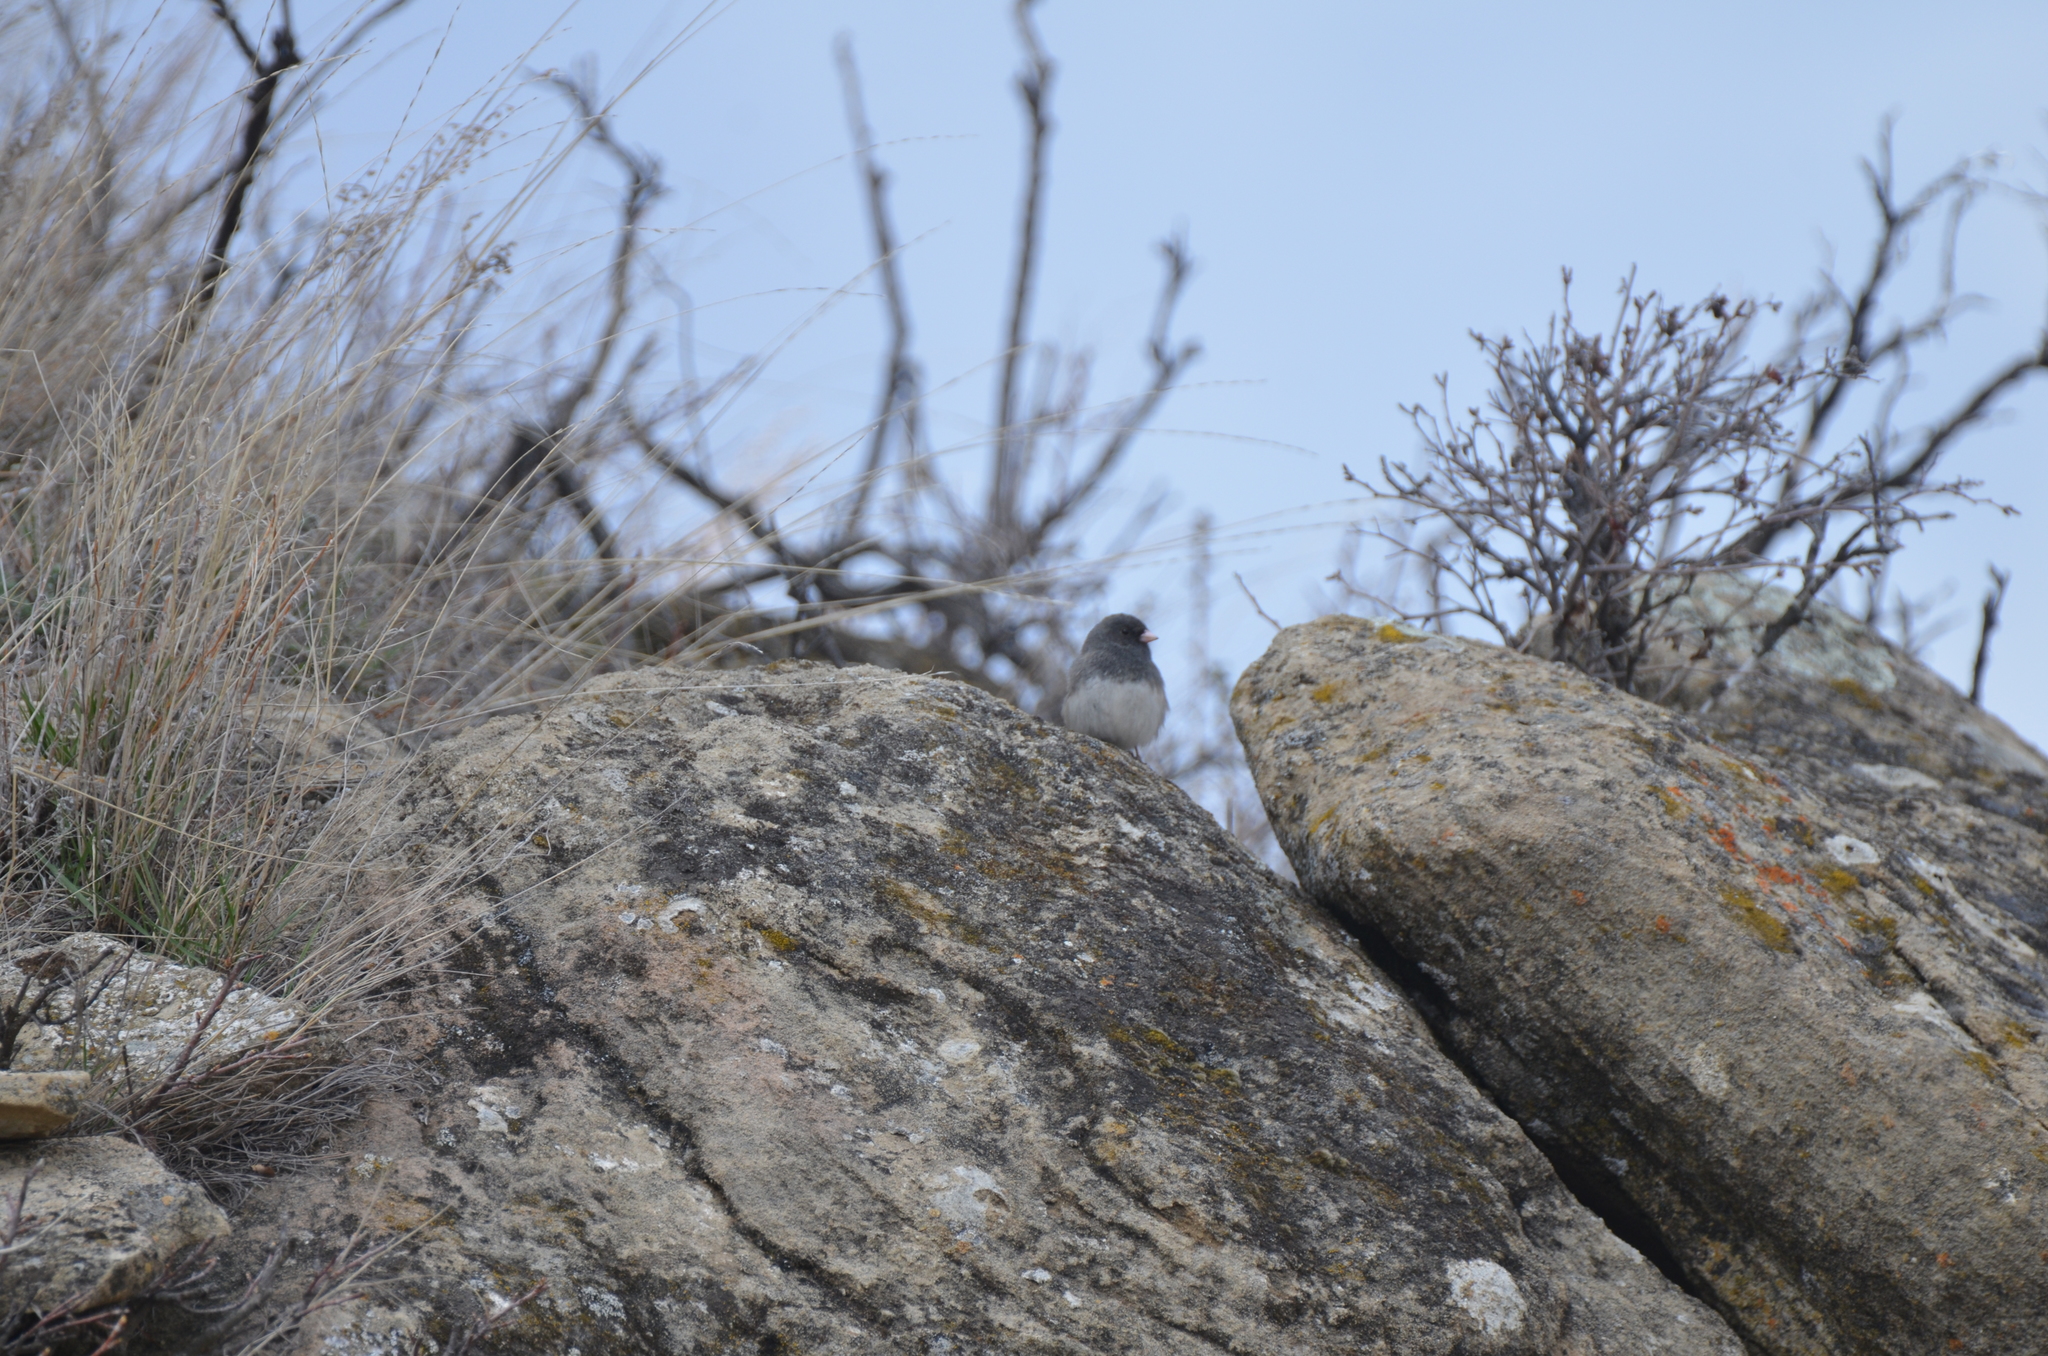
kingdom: Animalia
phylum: Chordata
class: Aves
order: Passeriformes
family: Passerellidae
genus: Junco
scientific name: Junco hyemalis
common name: Dark-eyed junco
